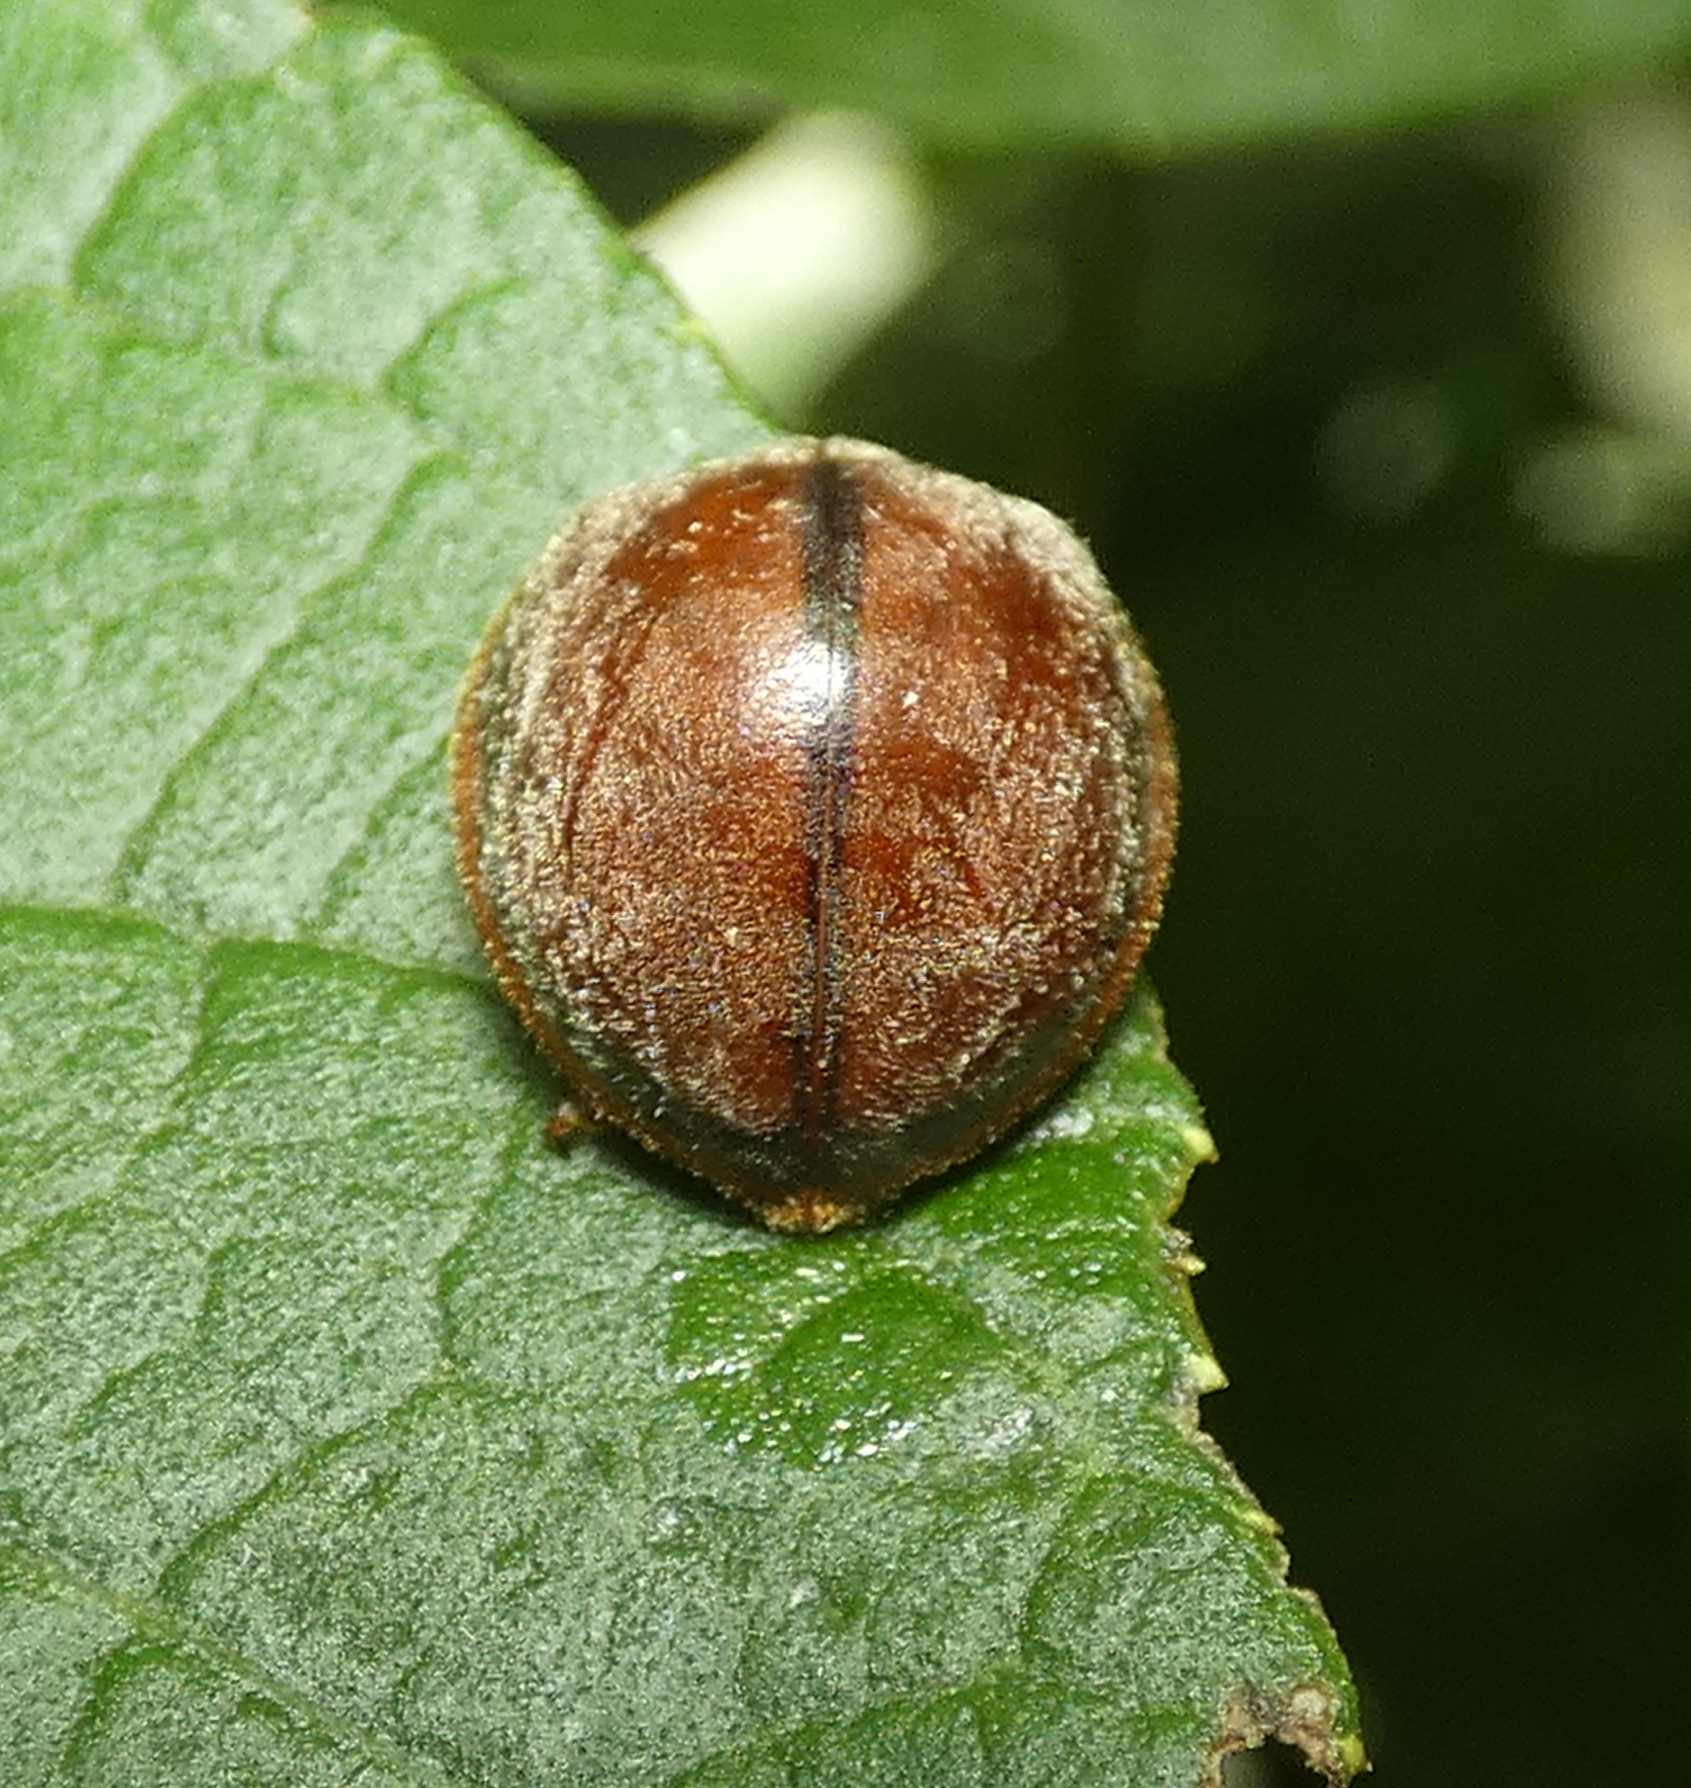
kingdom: Animalia
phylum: Arthropoda
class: Insecta
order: Coleoptera
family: Coccinellidae
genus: Epilachna
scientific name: Epilachna cacica
